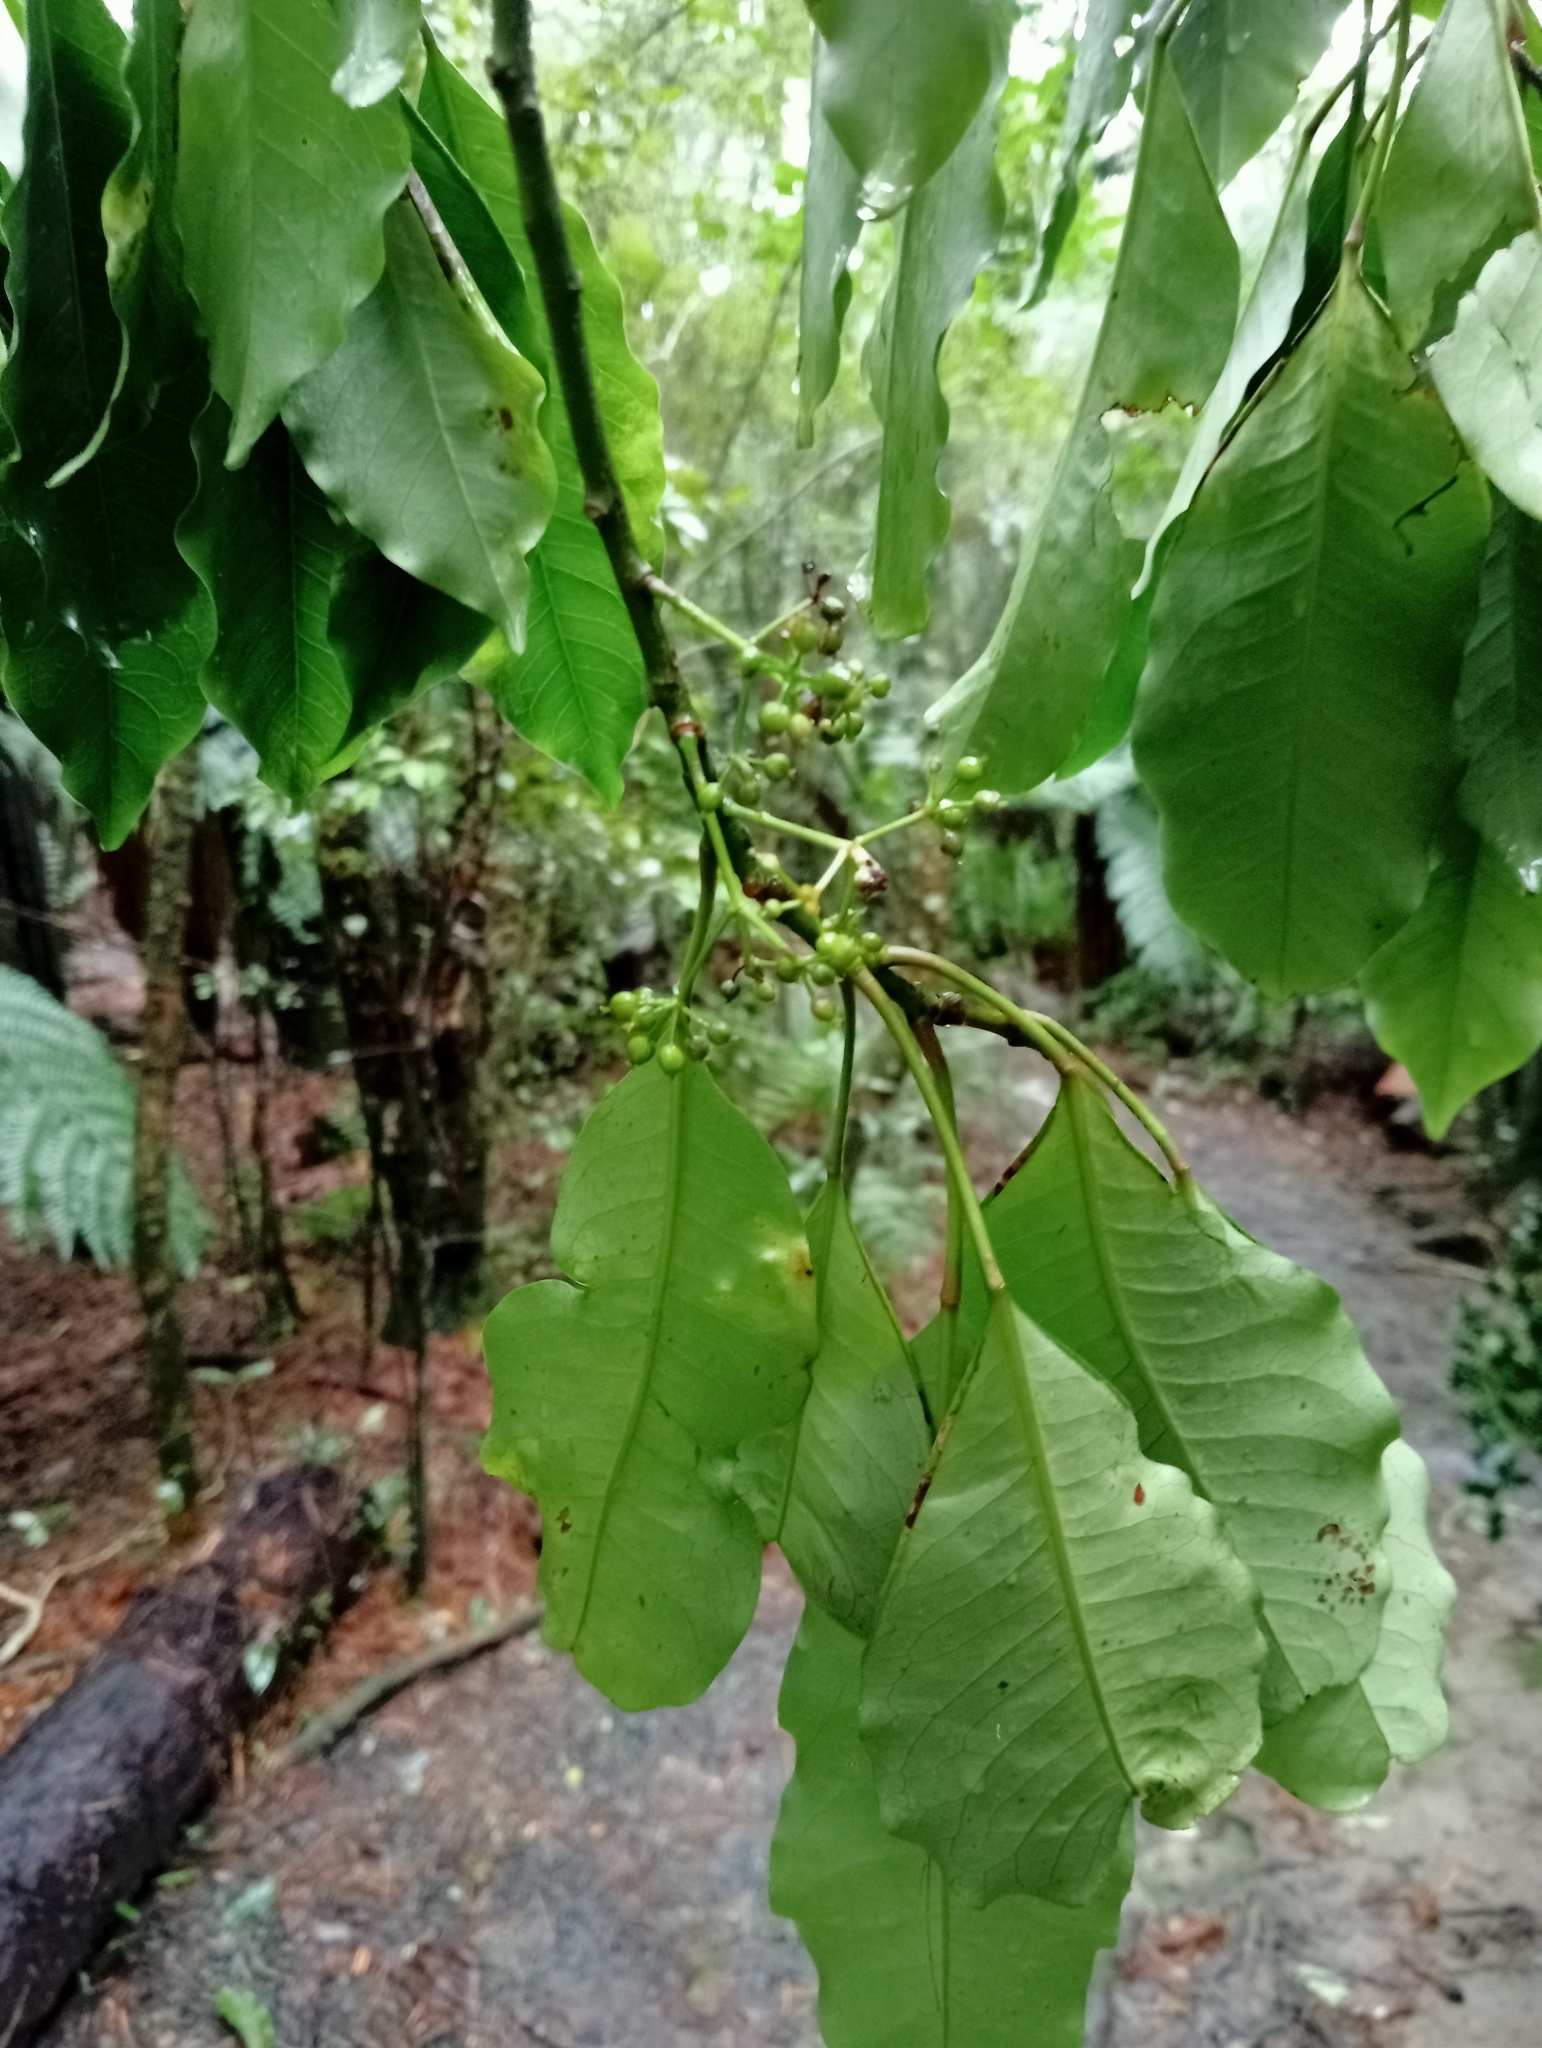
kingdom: Plantae
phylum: Tracheophyta
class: Magnoliopsida
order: Apiales
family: Araliaceae
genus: Raukaua
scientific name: Raukaua edgerleyi
